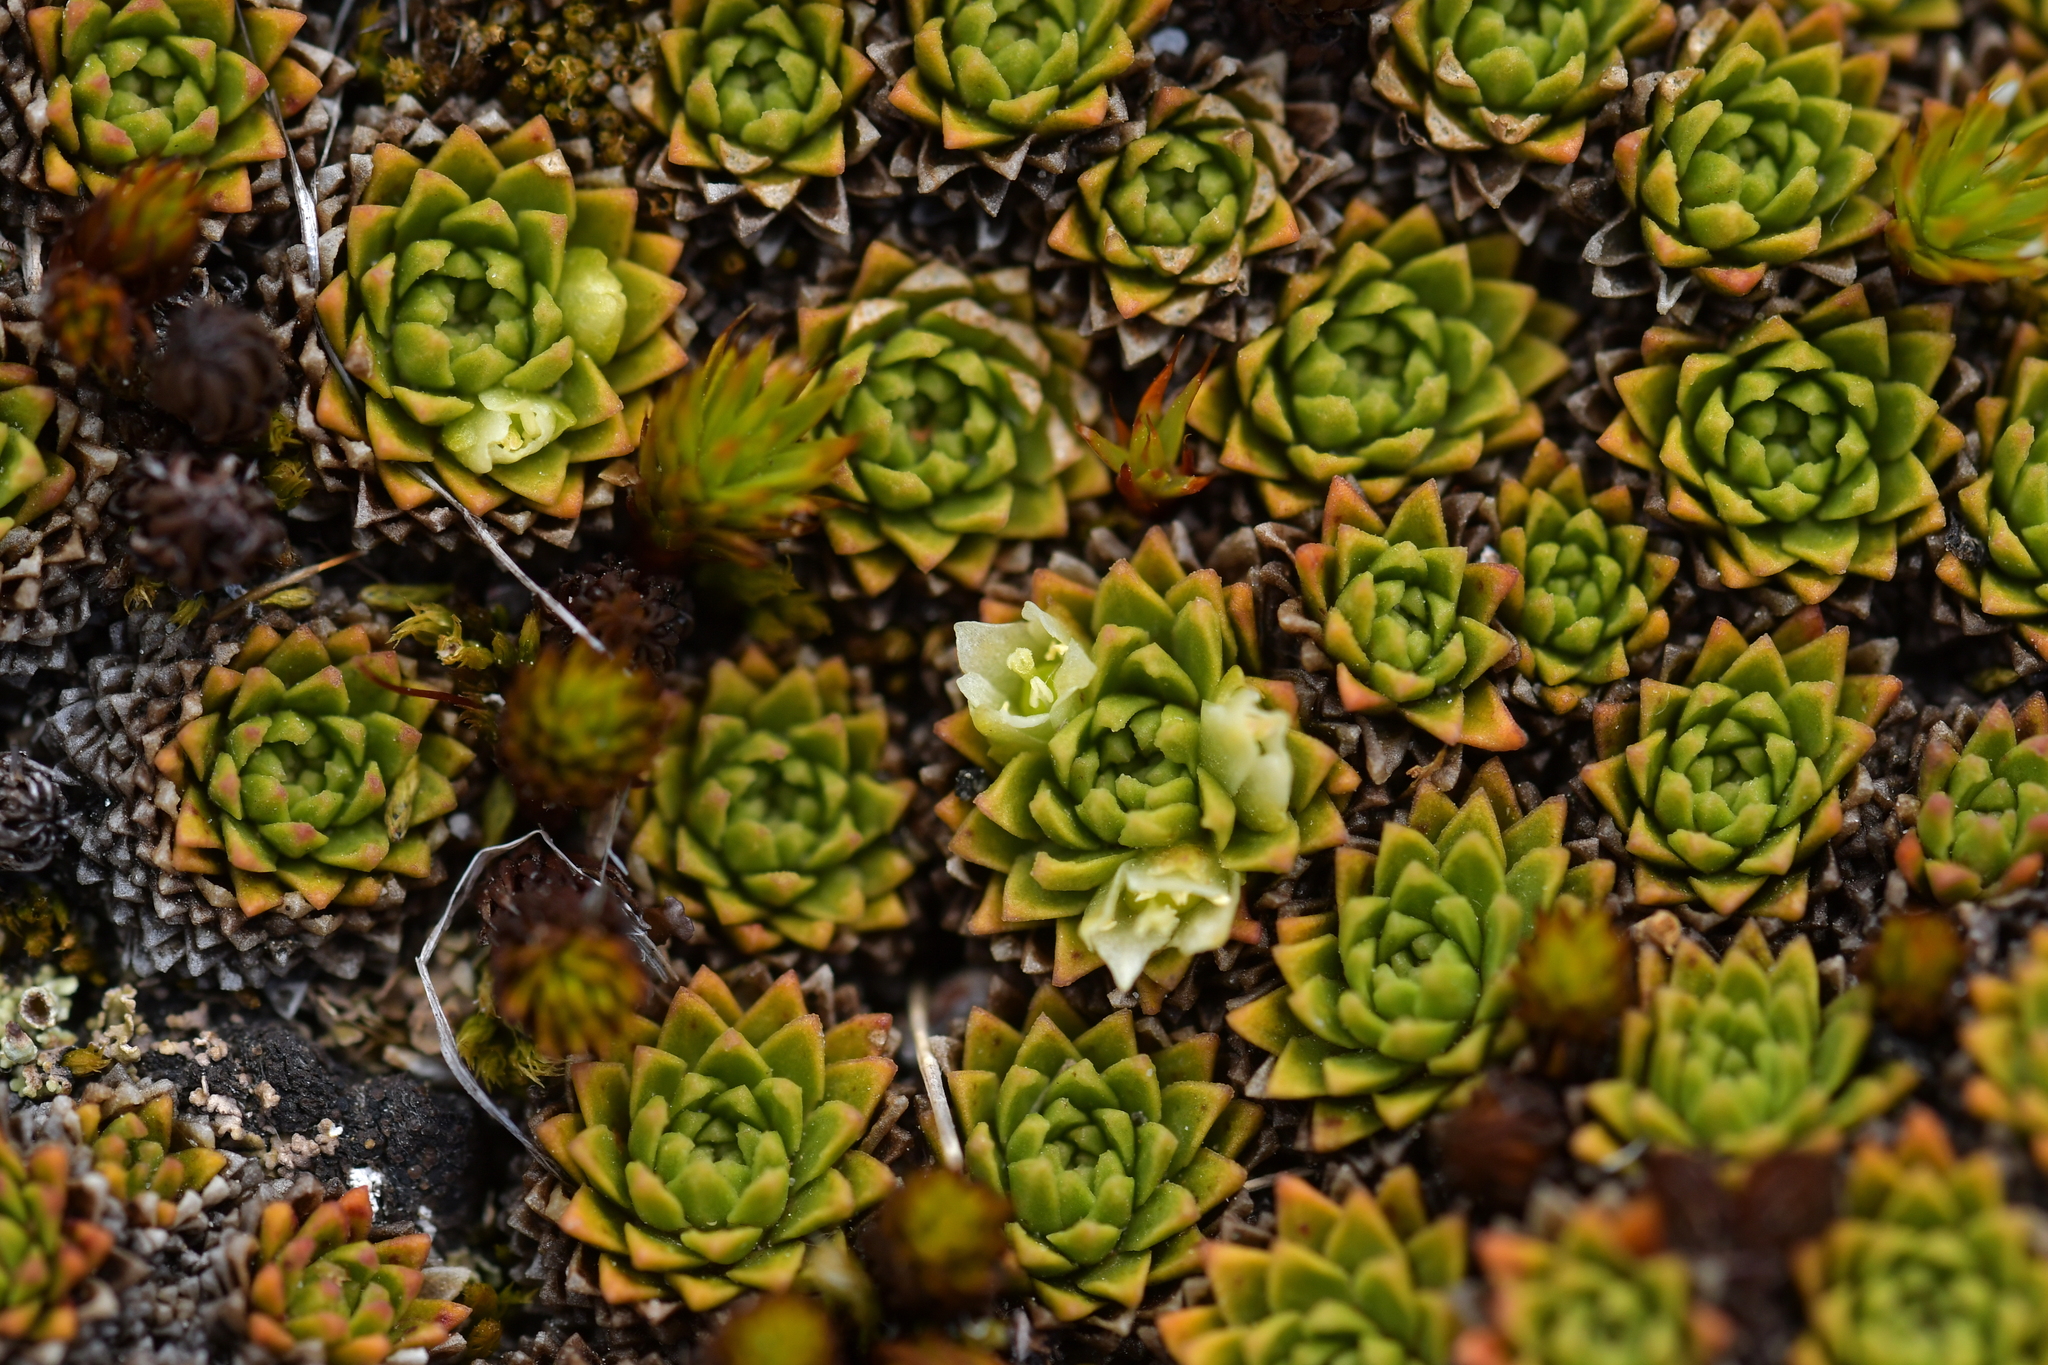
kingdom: Plantae
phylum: Tracheophyta
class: Magnoliopsida
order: Caryophyllales
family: Montiaceae
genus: Hectorella
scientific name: Hectorella caespitosa
